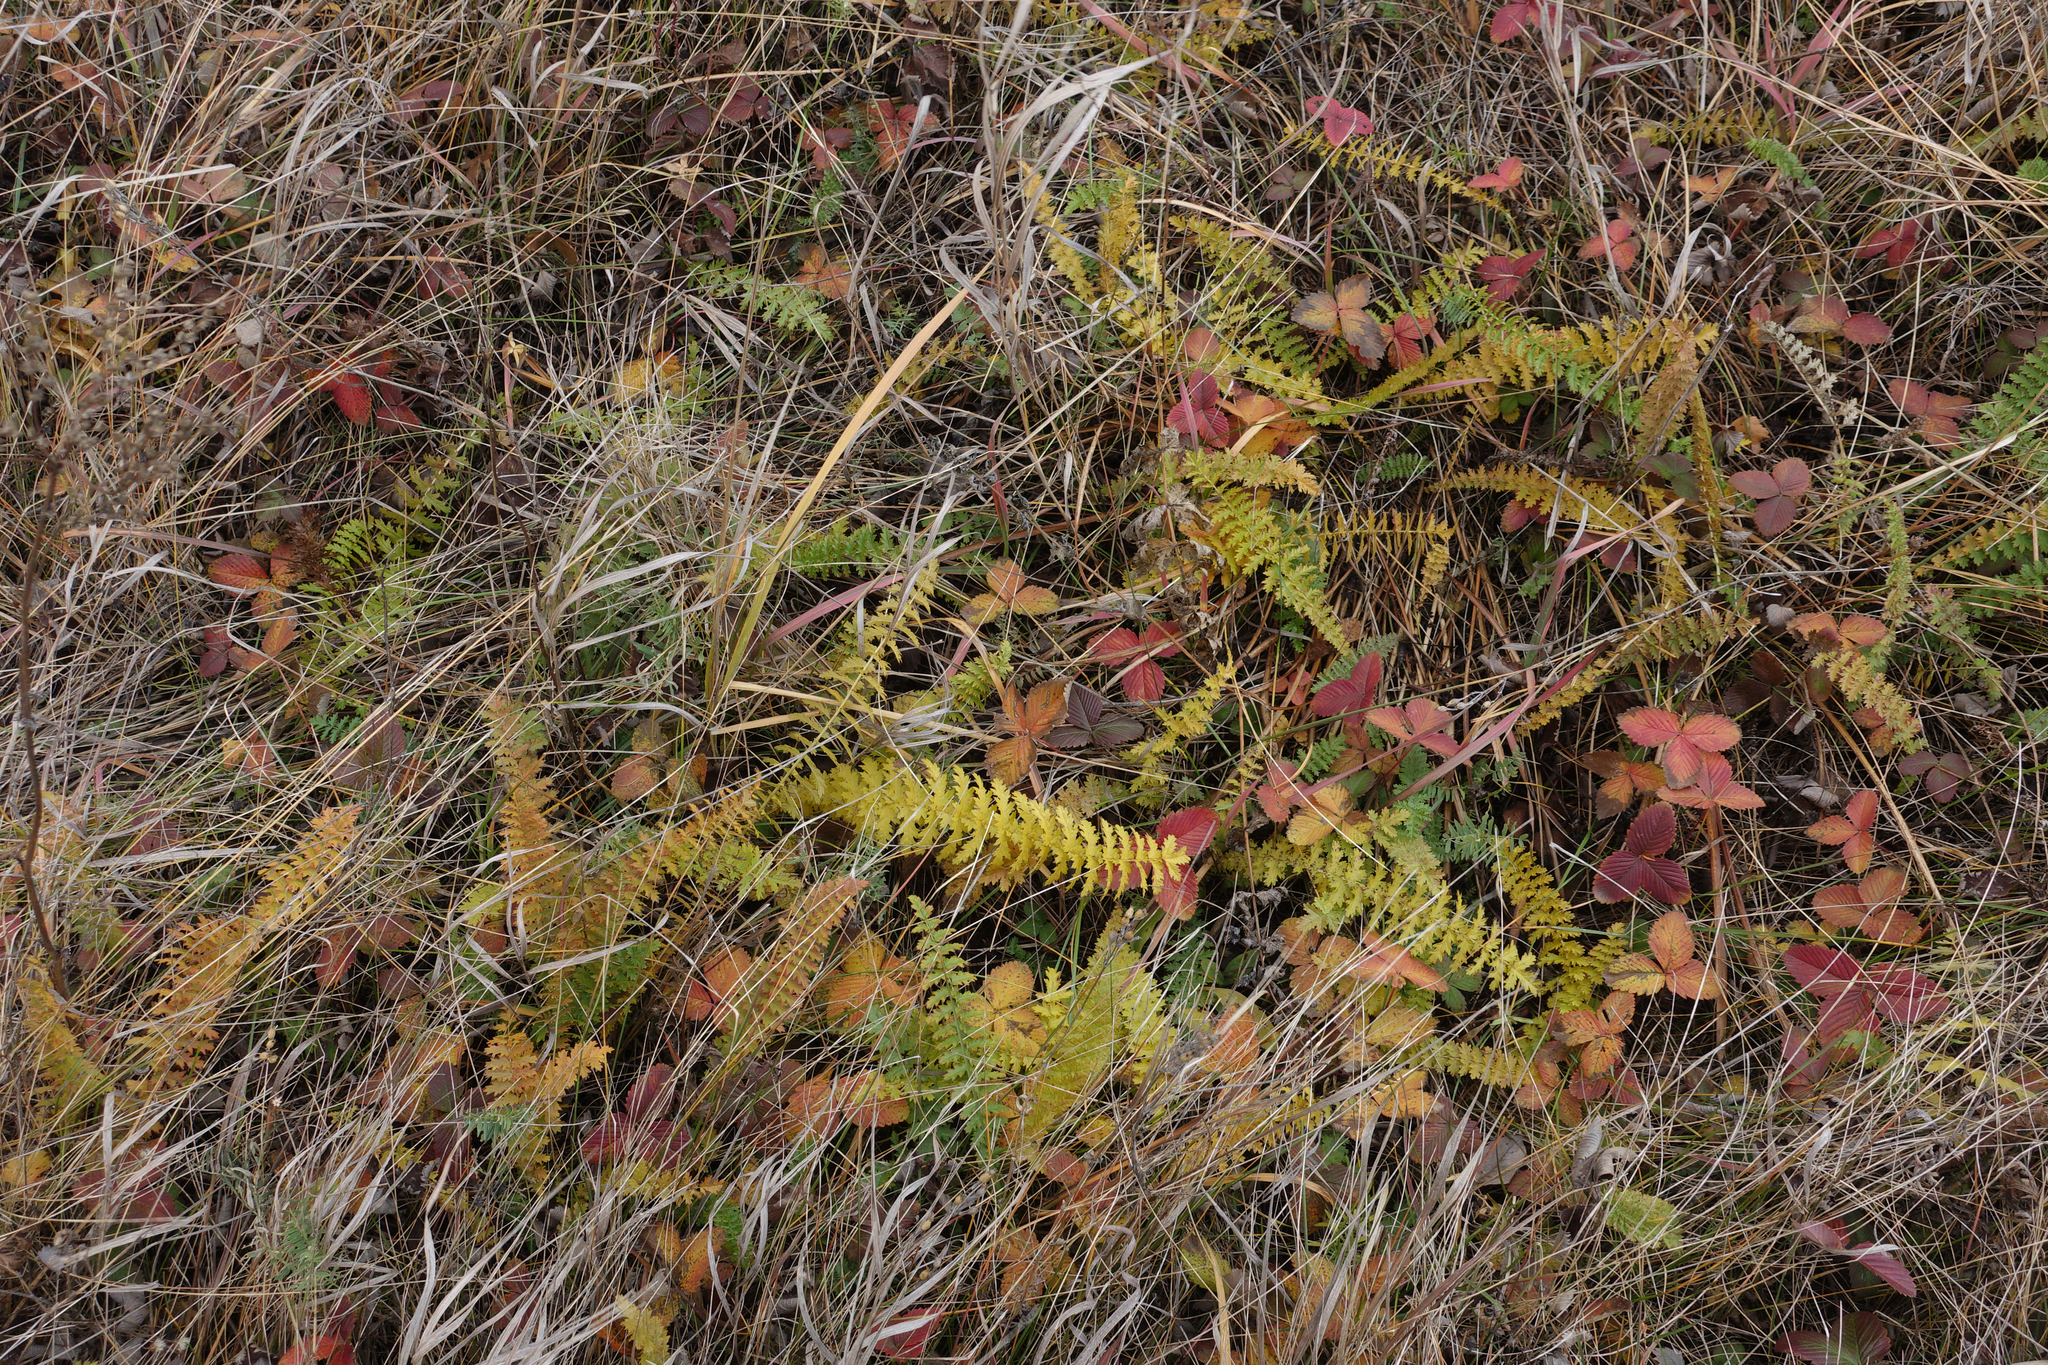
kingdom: Plantae
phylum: Tracheophyta
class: Magnoliopsida
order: Rosales
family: Rosaceae
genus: Filipendula
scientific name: Filipendula vulgaris
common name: Dropwort
